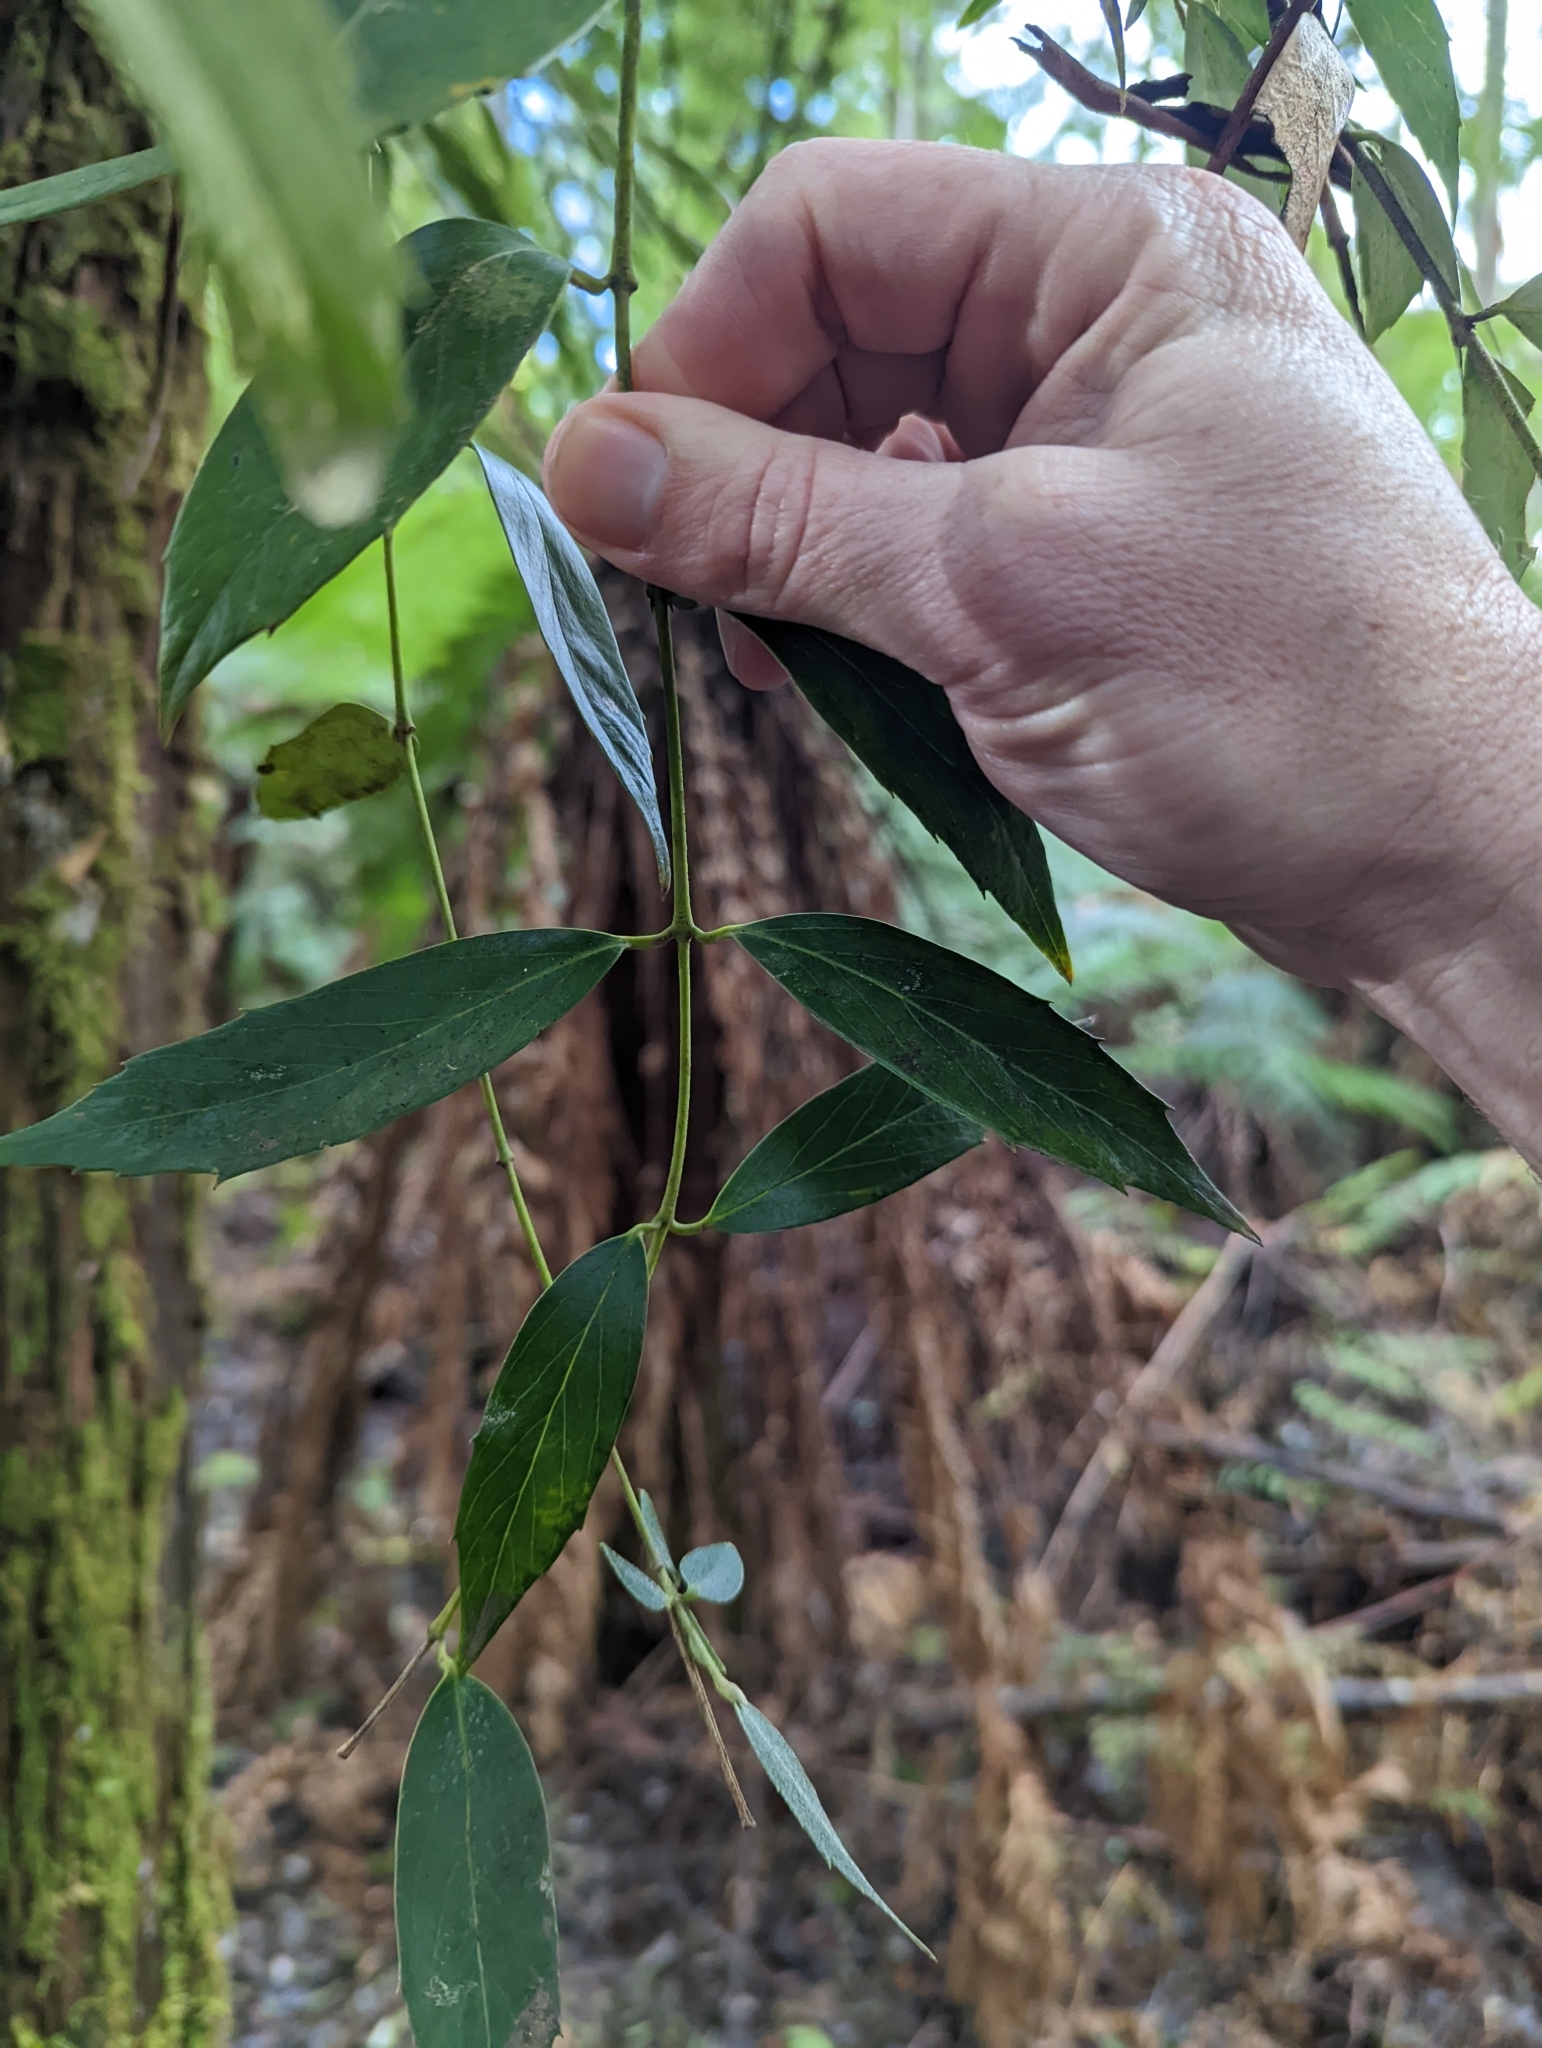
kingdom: Plantae
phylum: Tracheophyta
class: Magnoliopsida
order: Laurales
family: Atherospermataceae
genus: Atherosperma
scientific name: Atherosperma moschatum
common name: Tasmanian-sassafras
